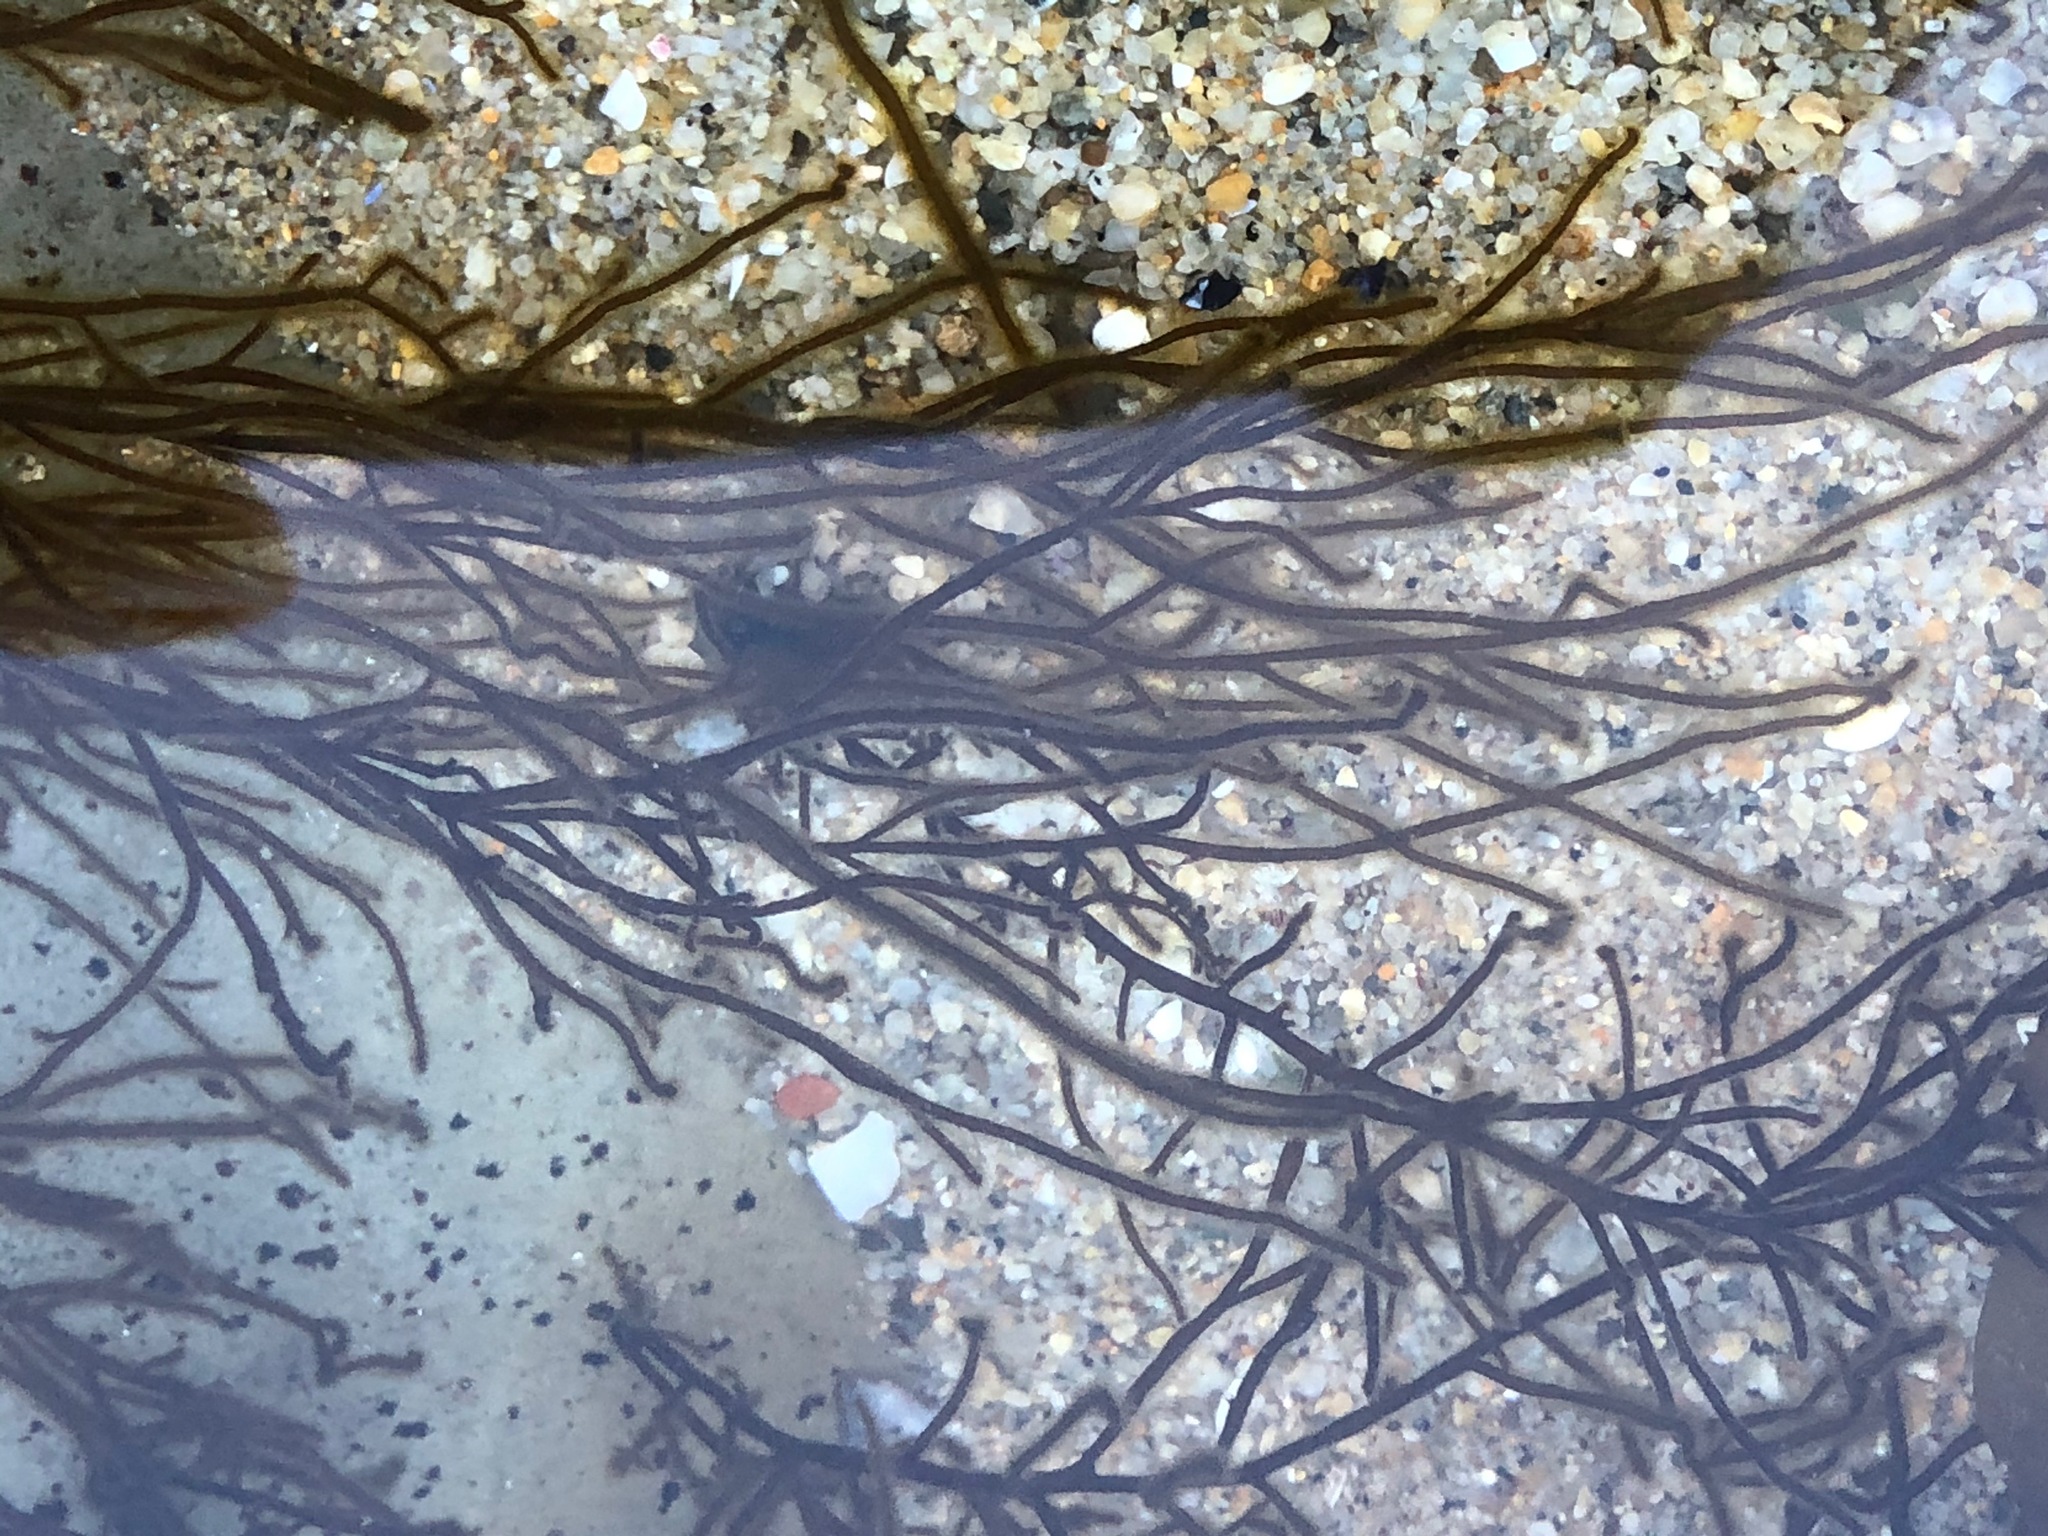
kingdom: Chromista
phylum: Ochrophyta
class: Phaeophyceae
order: Ectocarpales
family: Chordariaceae
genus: Haplogloia
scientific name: Haplogloia andersonii
